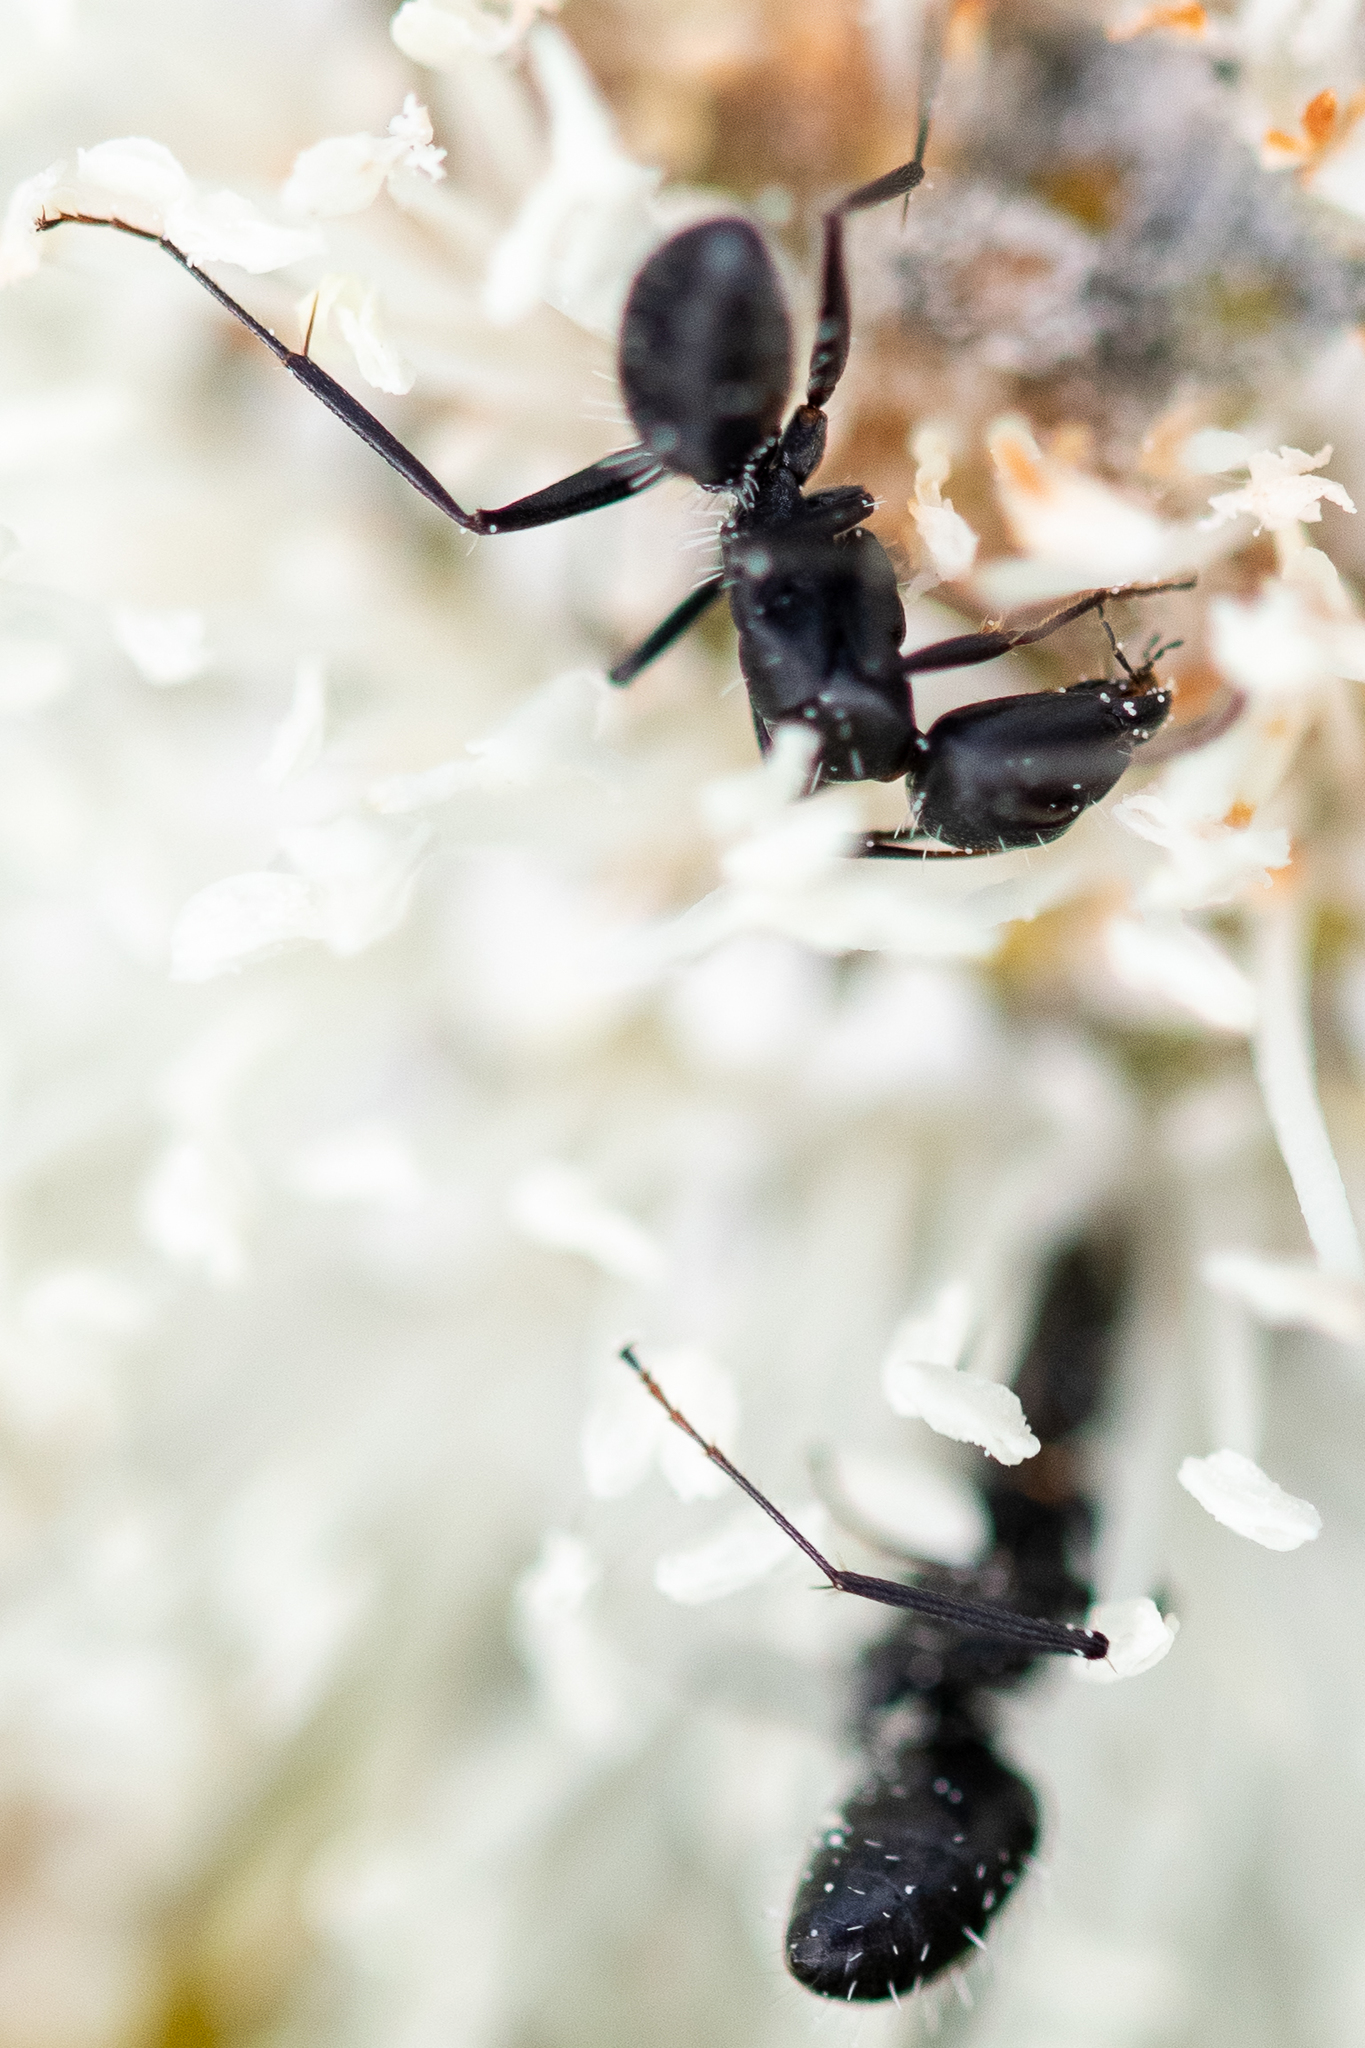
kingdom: Animalia
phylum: Arthropoda
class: Insecta
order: Hymenoptera
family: Formicidae
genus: Camponotus
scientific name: Camponotus niveosetosus
